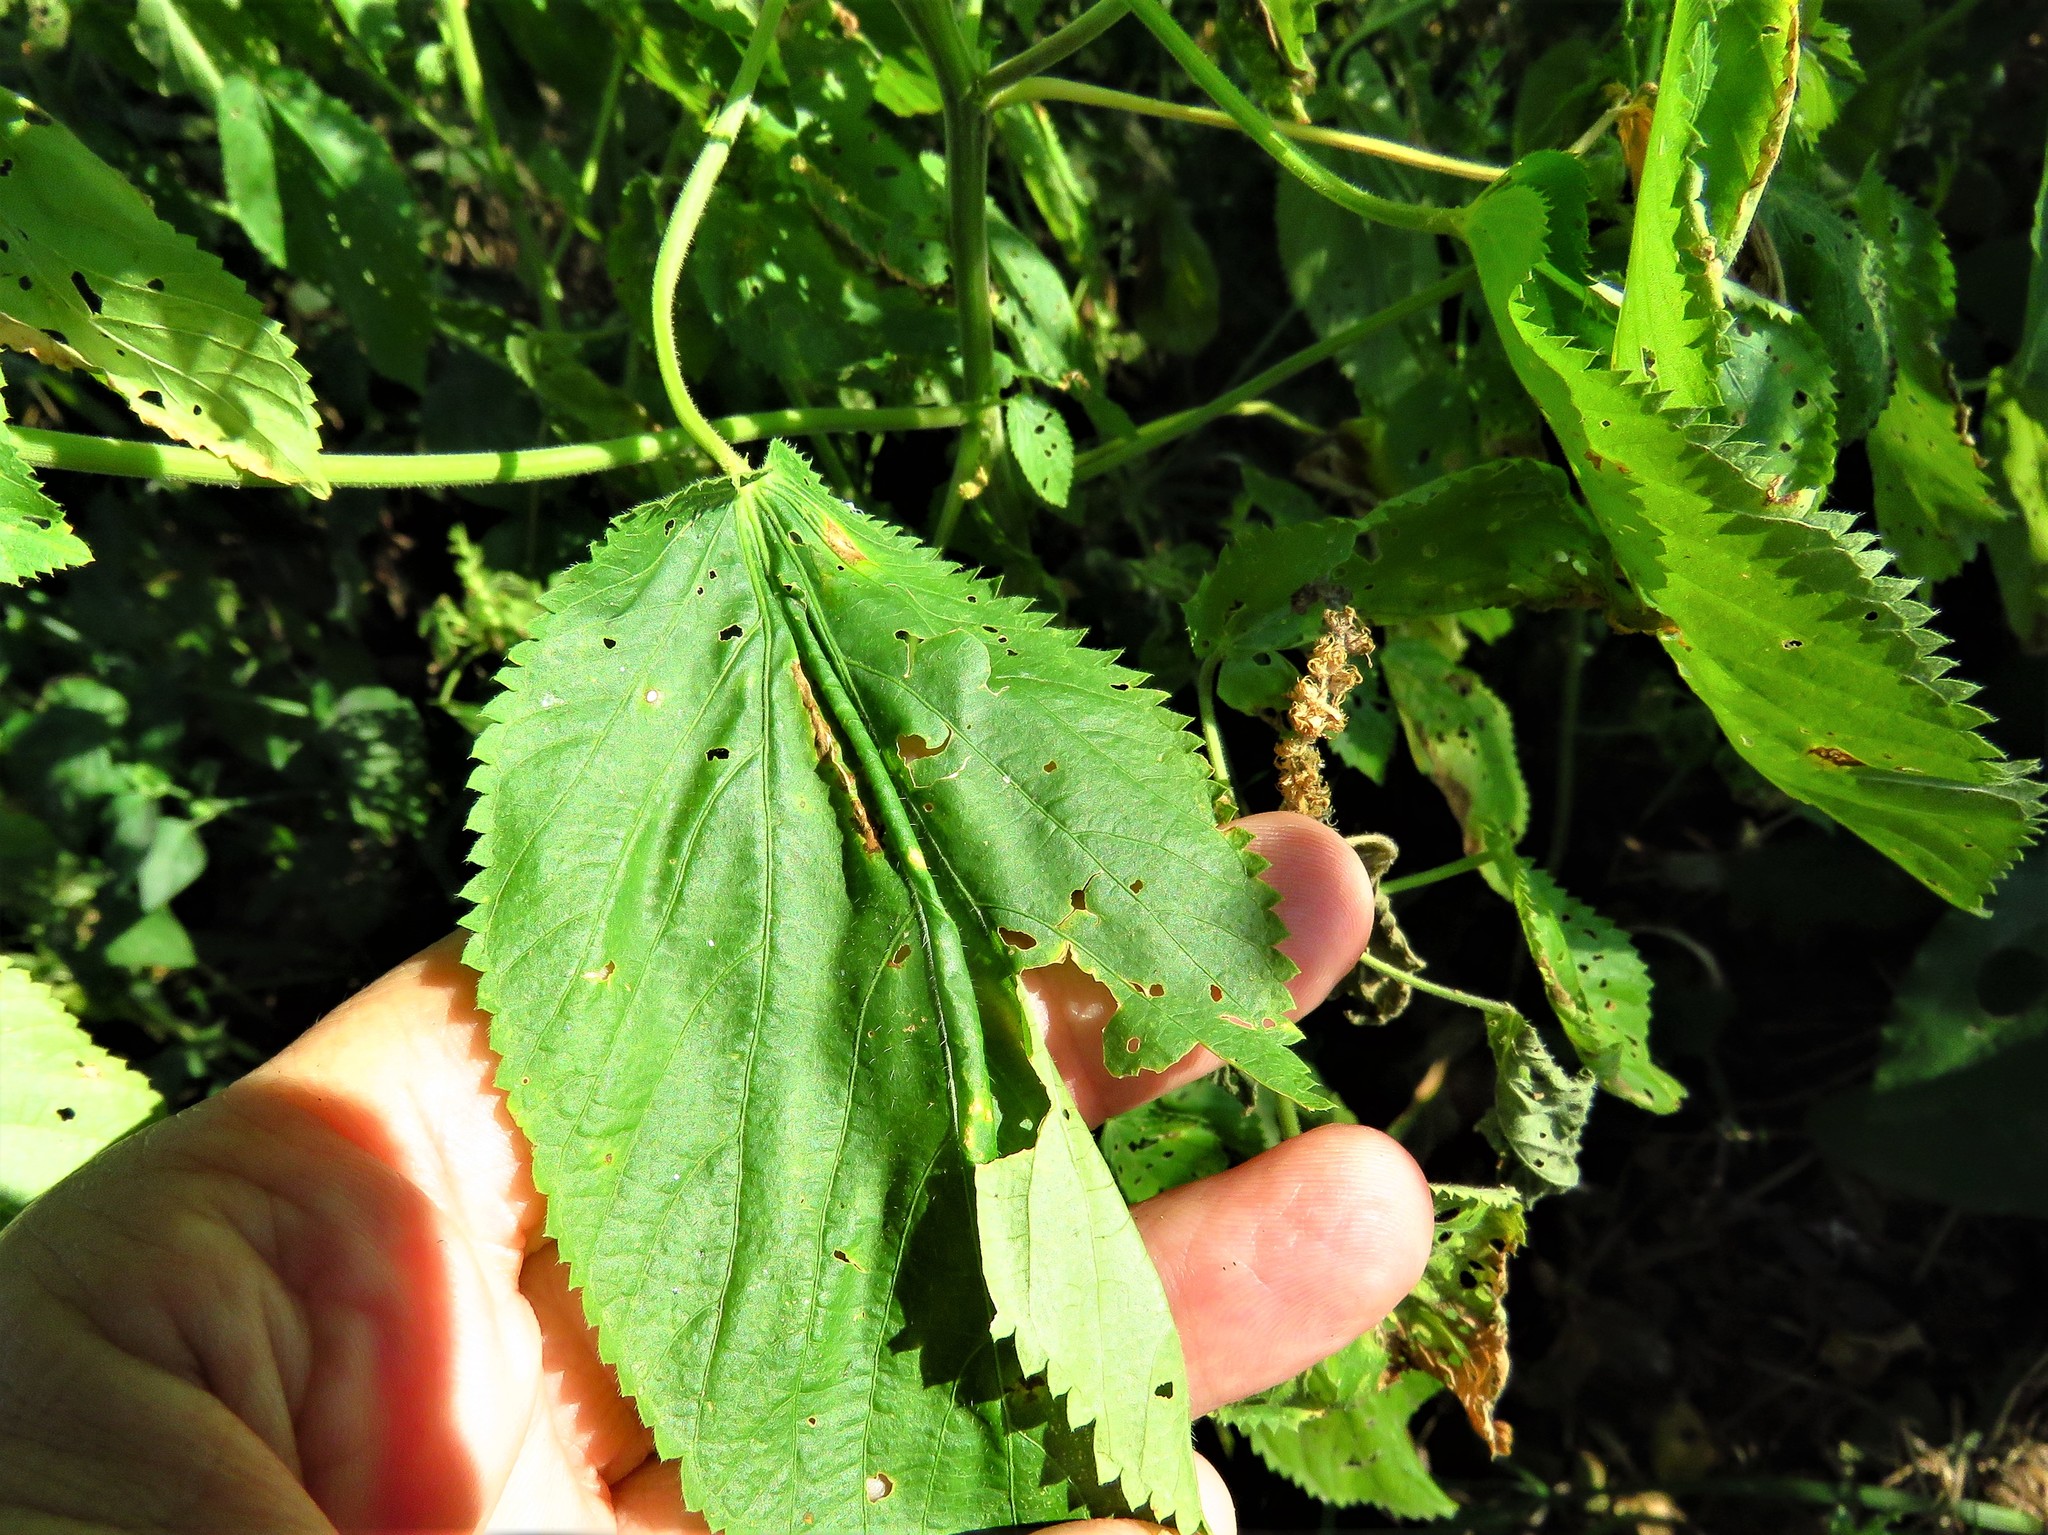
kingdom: Plantae
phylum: Tracheophyta
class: Magnoliopsida
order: Malpighiales
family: Euphorbiaceae
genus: Acalypha
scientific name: Acalypha ostryifolia
